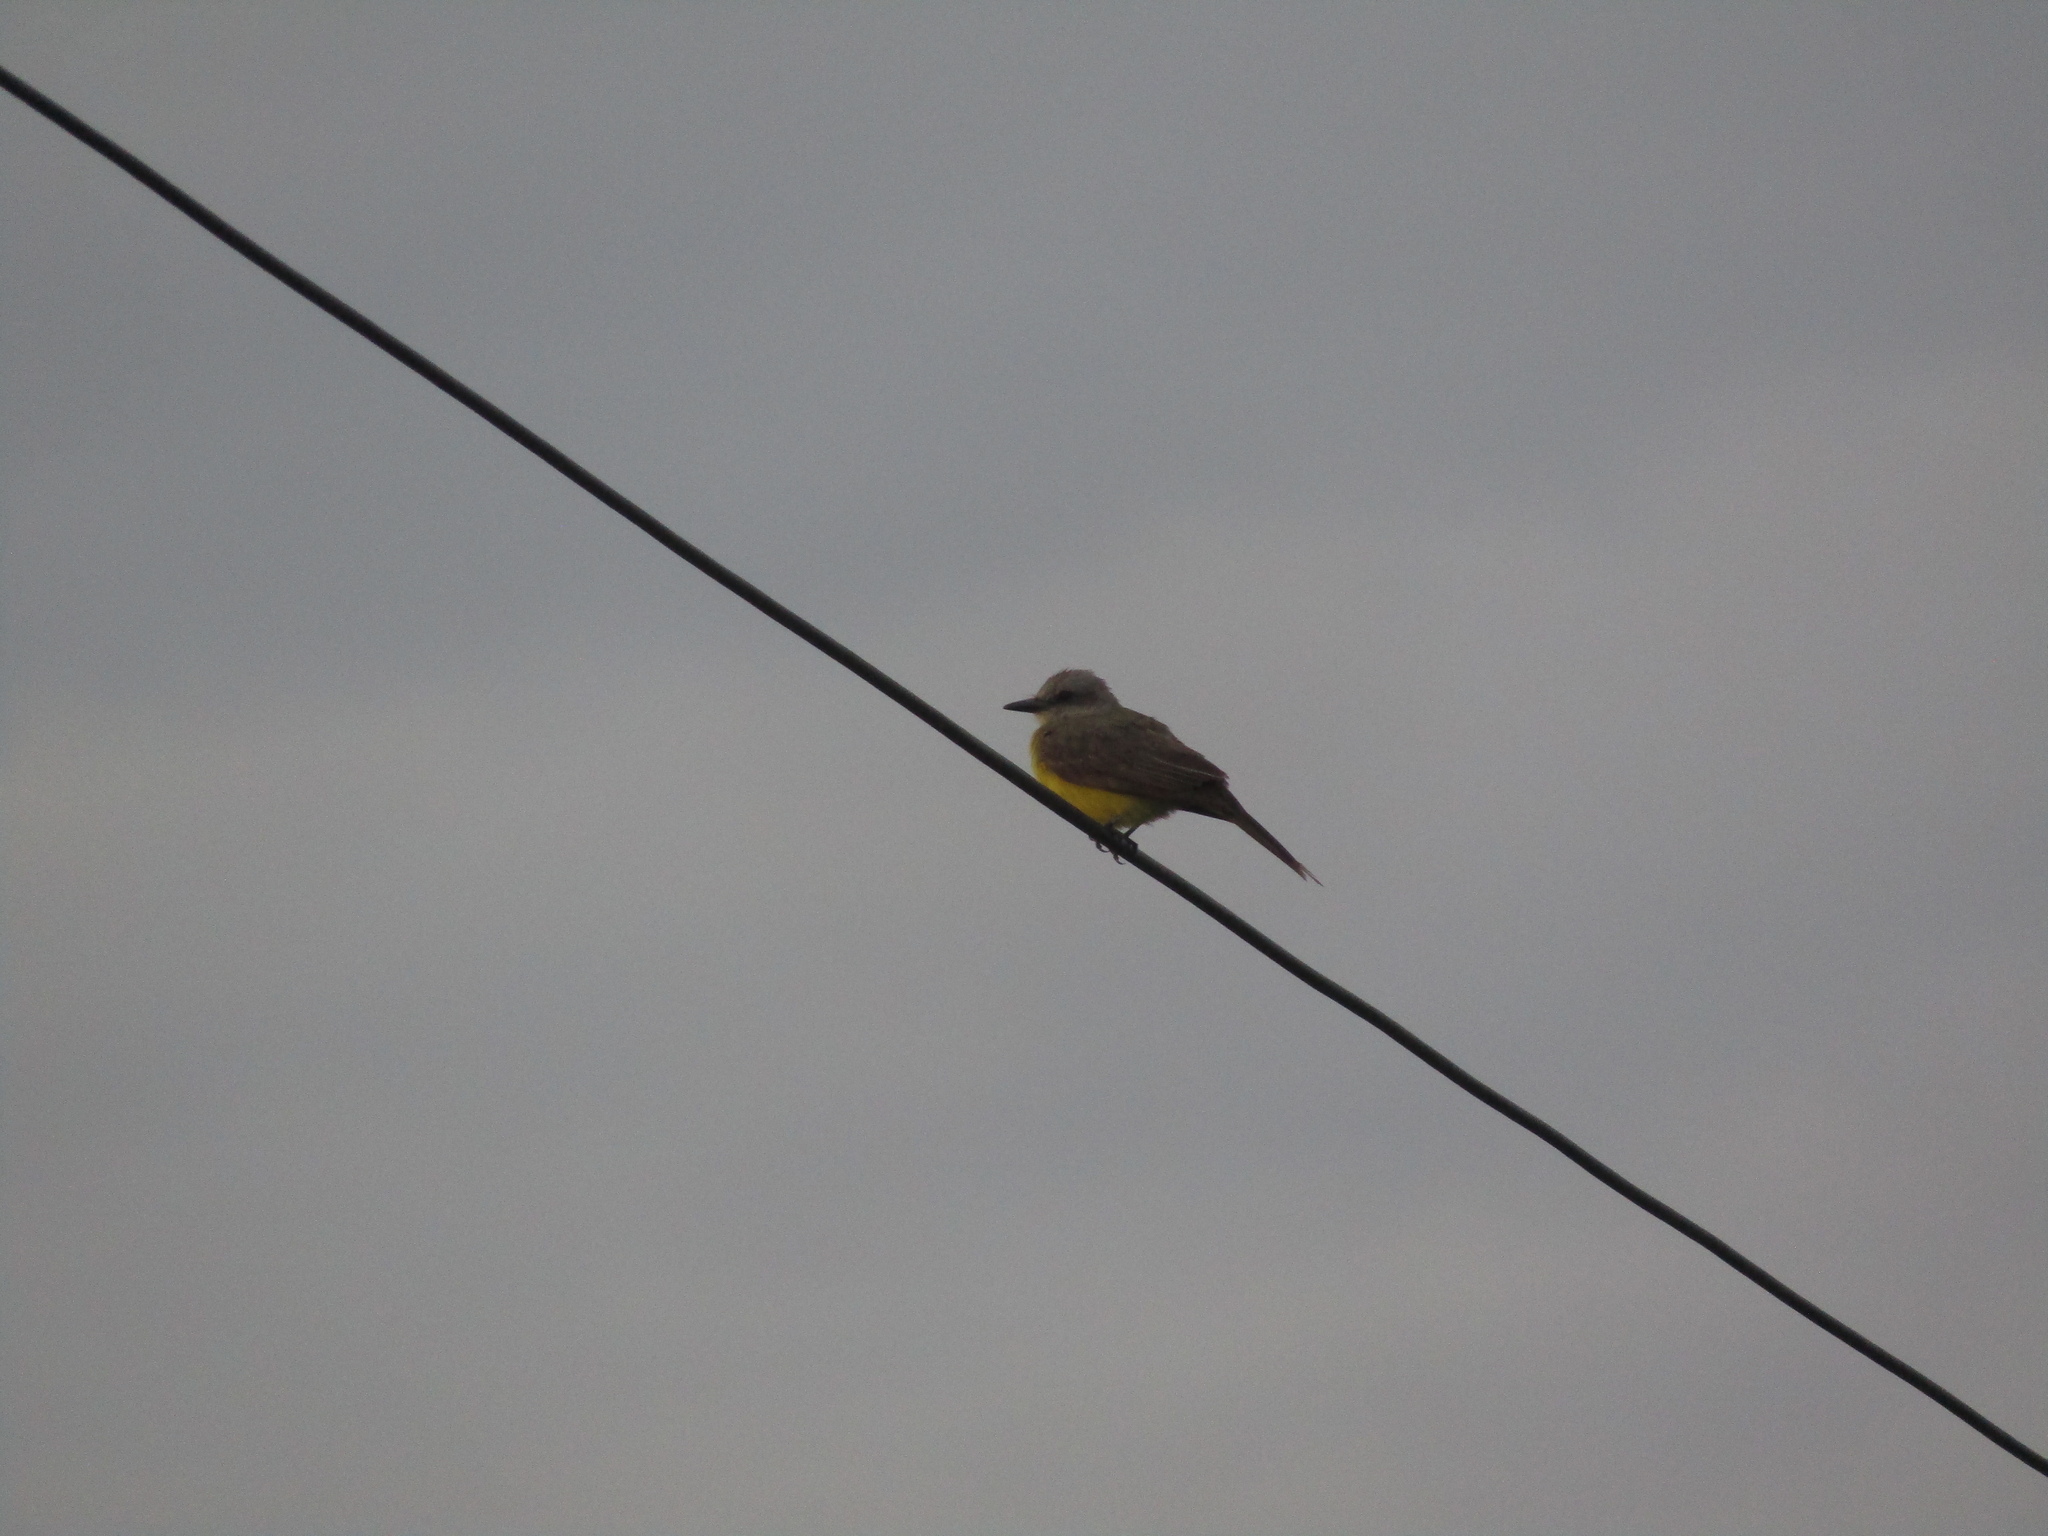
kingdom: Animalia
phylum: Chordata
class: Aves
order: Passeriformes
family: Tyrannidae
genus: Tyrannus
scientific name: Tyrannus melancholicus
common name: Tropical kingbird
